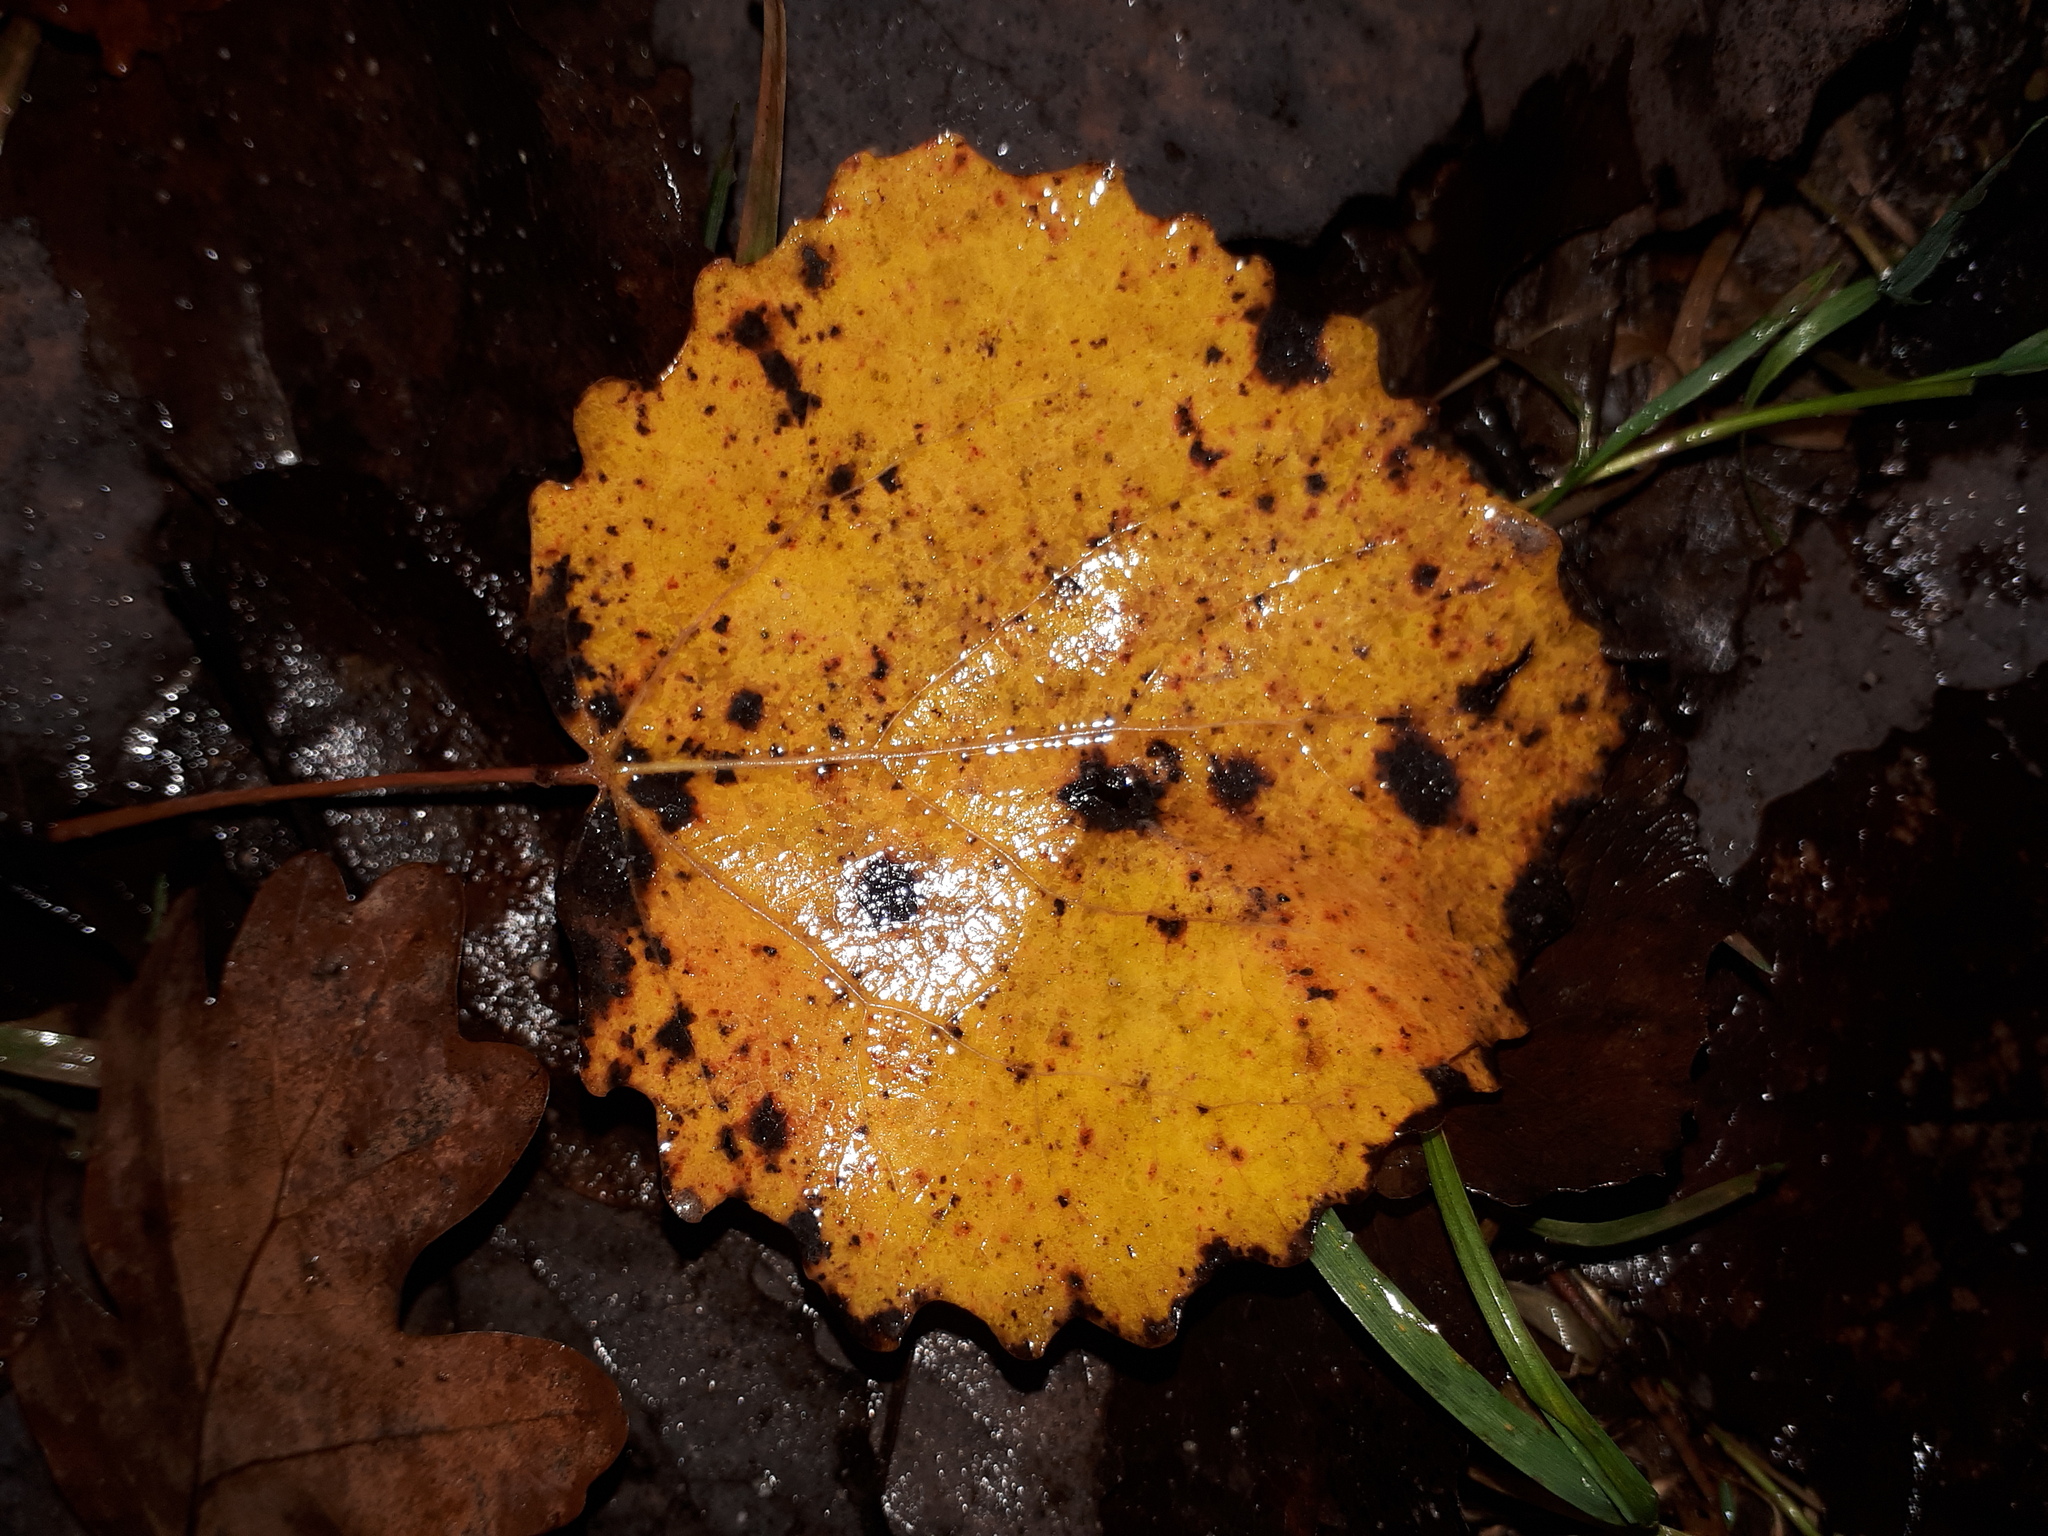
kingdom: Plantae
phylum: Tracheophyta
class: Magnoliopsida
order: Malpighiales
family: Salicaceae
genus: Populus
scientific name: Populus tremula
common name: European aspen
